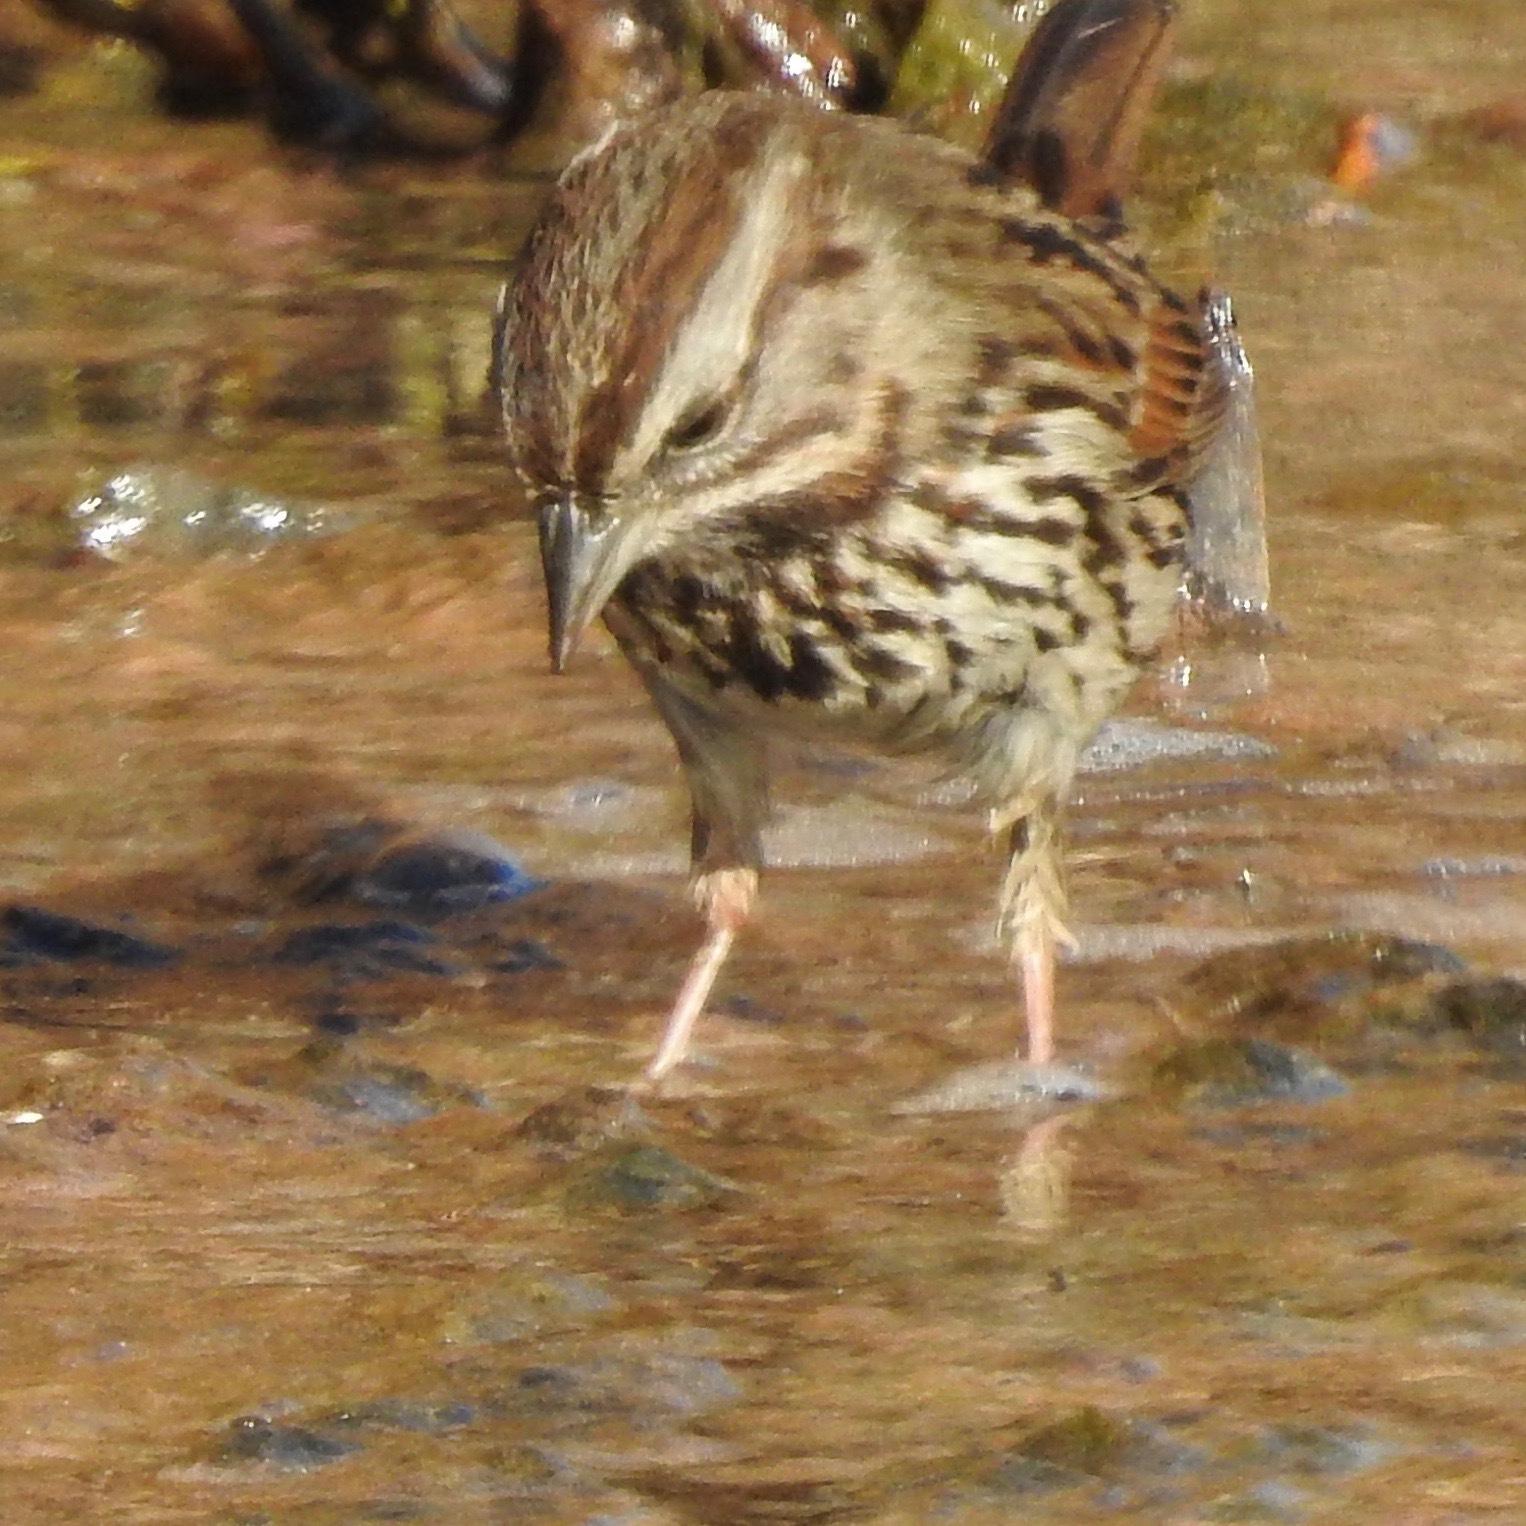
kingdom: Animalia
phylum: Chordata
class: Aves
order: Passeriformes
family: Passerellidae
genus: Melospiza
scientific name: Melospiza melodia
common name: Song sparrow
